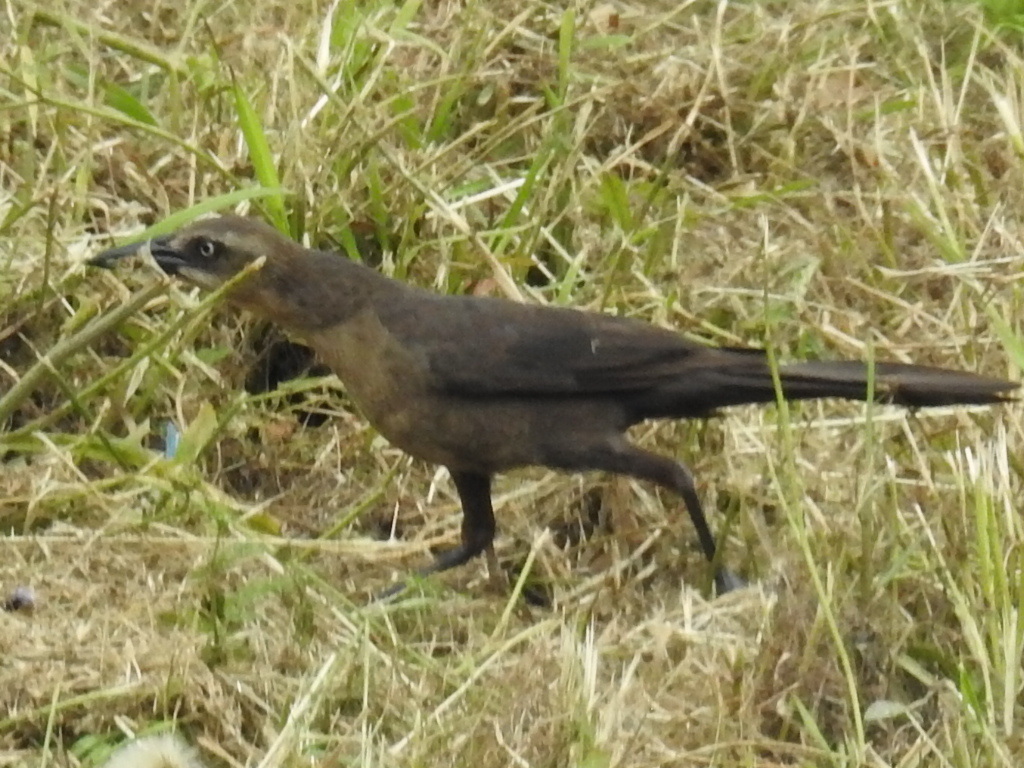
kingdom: Animalia
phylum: Chordata
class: Aves
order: Passeriformes
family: Icteridae
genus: Quiscalus
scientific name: Quiscalus mexicanus
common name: Great-tailed grackle
